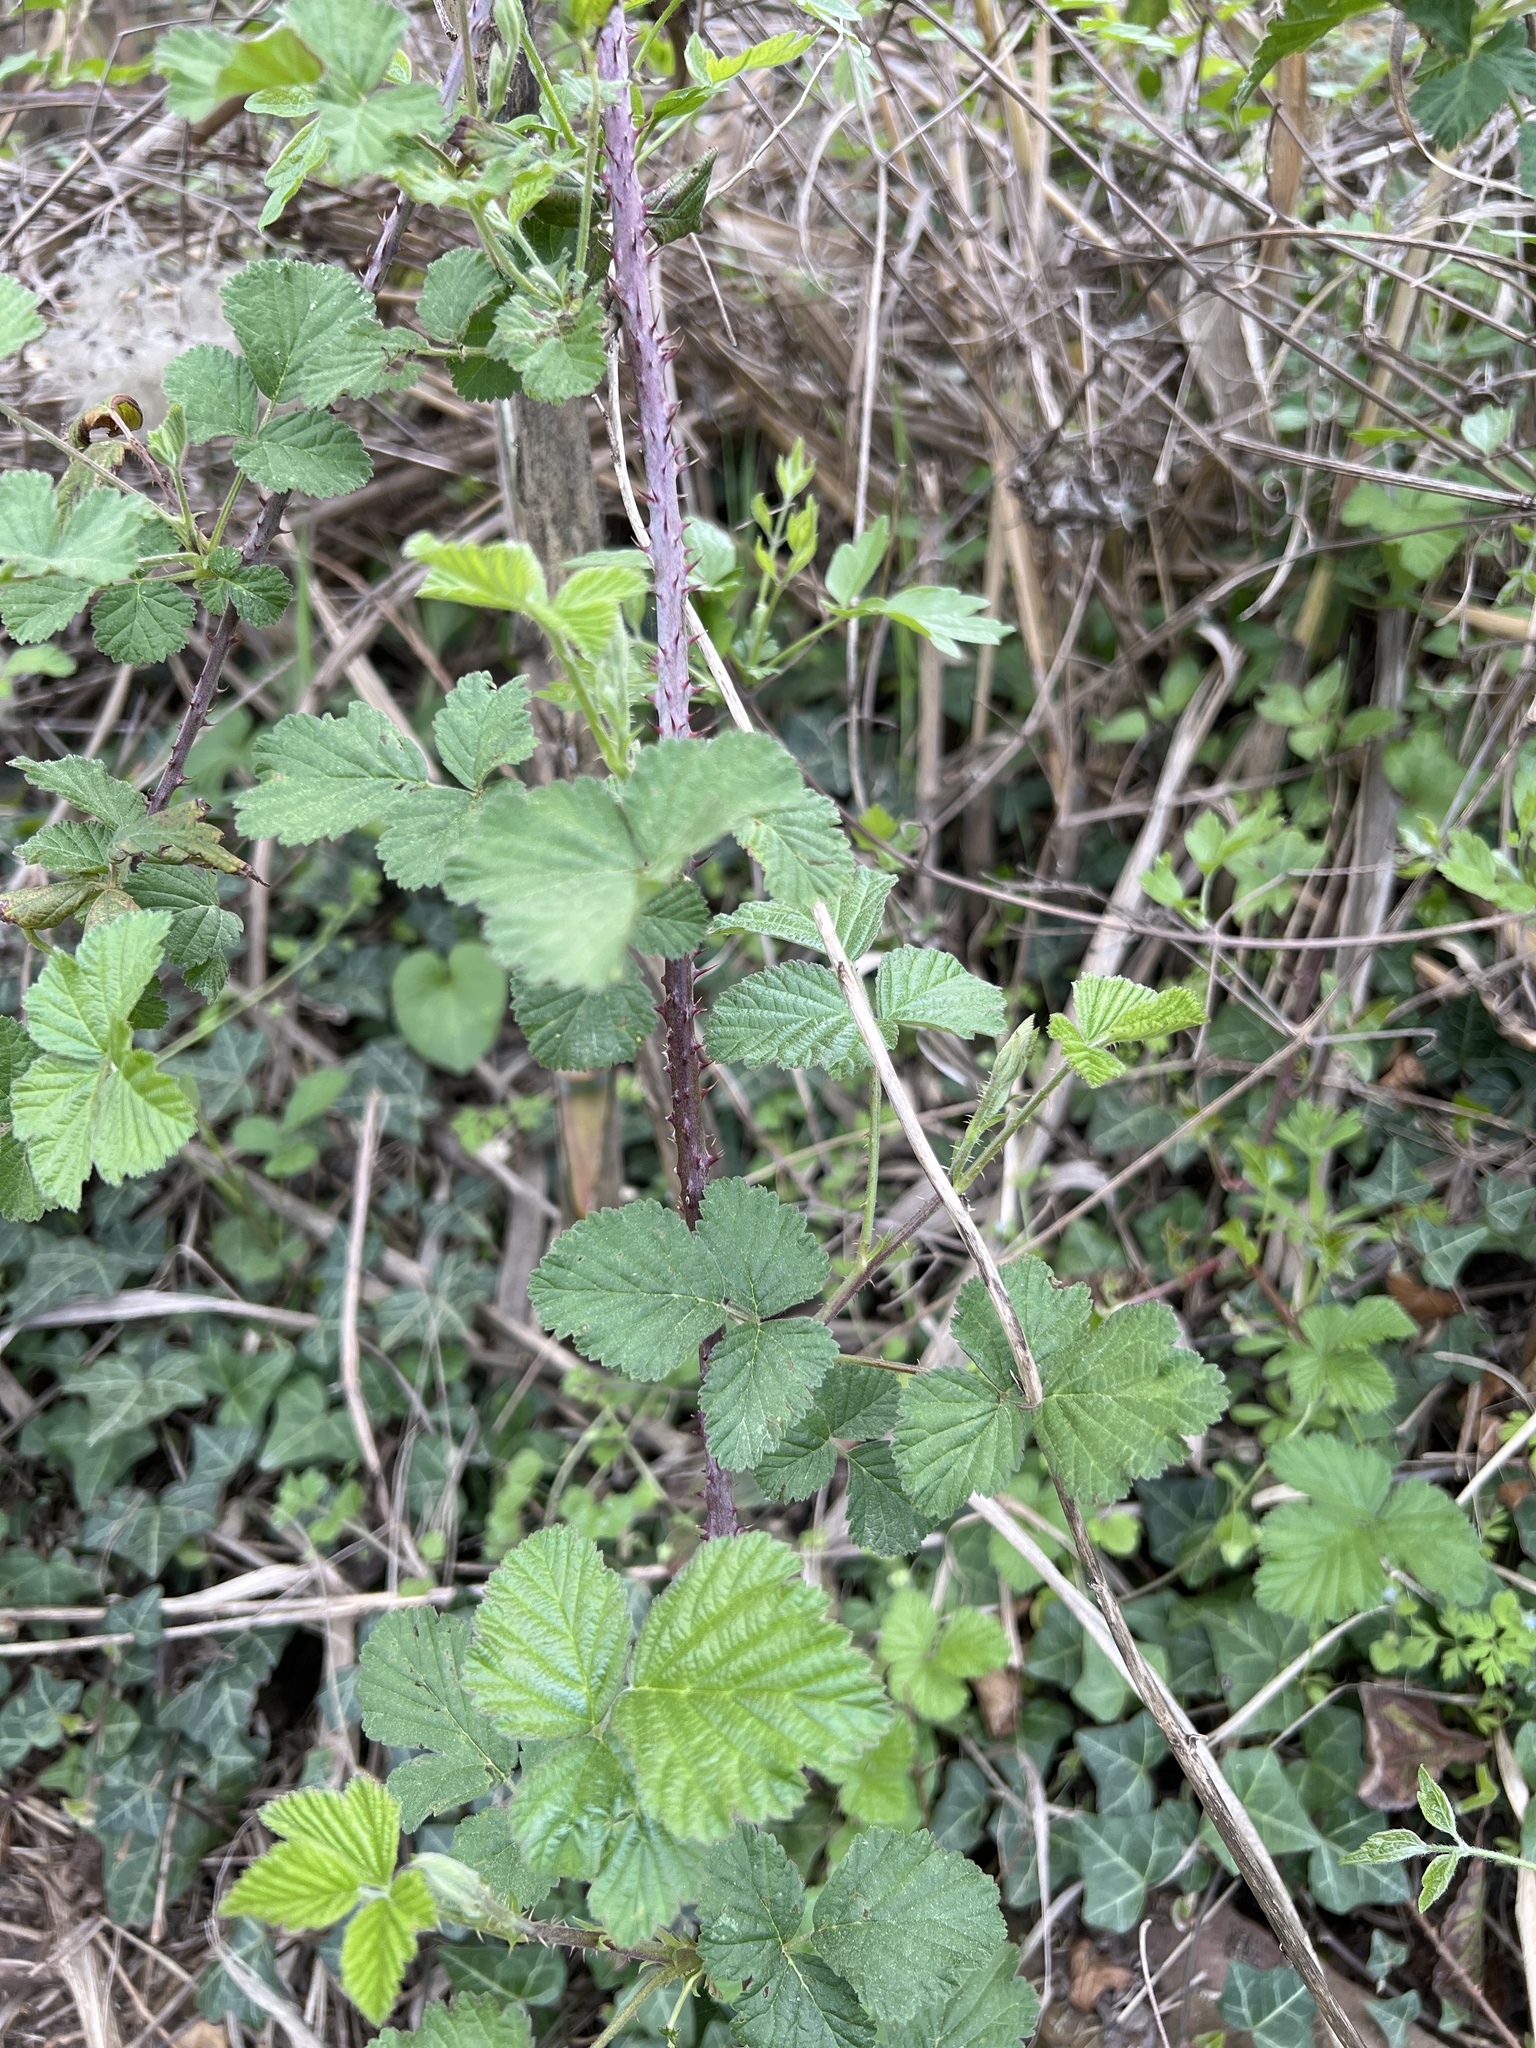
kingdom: Plantae
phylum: Tracheophyta
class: Magnoliopsida
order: Rosales
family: Rosaceae
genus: Rubus
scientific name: Rubus ulmifolius
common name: Elmleaf blackberry
